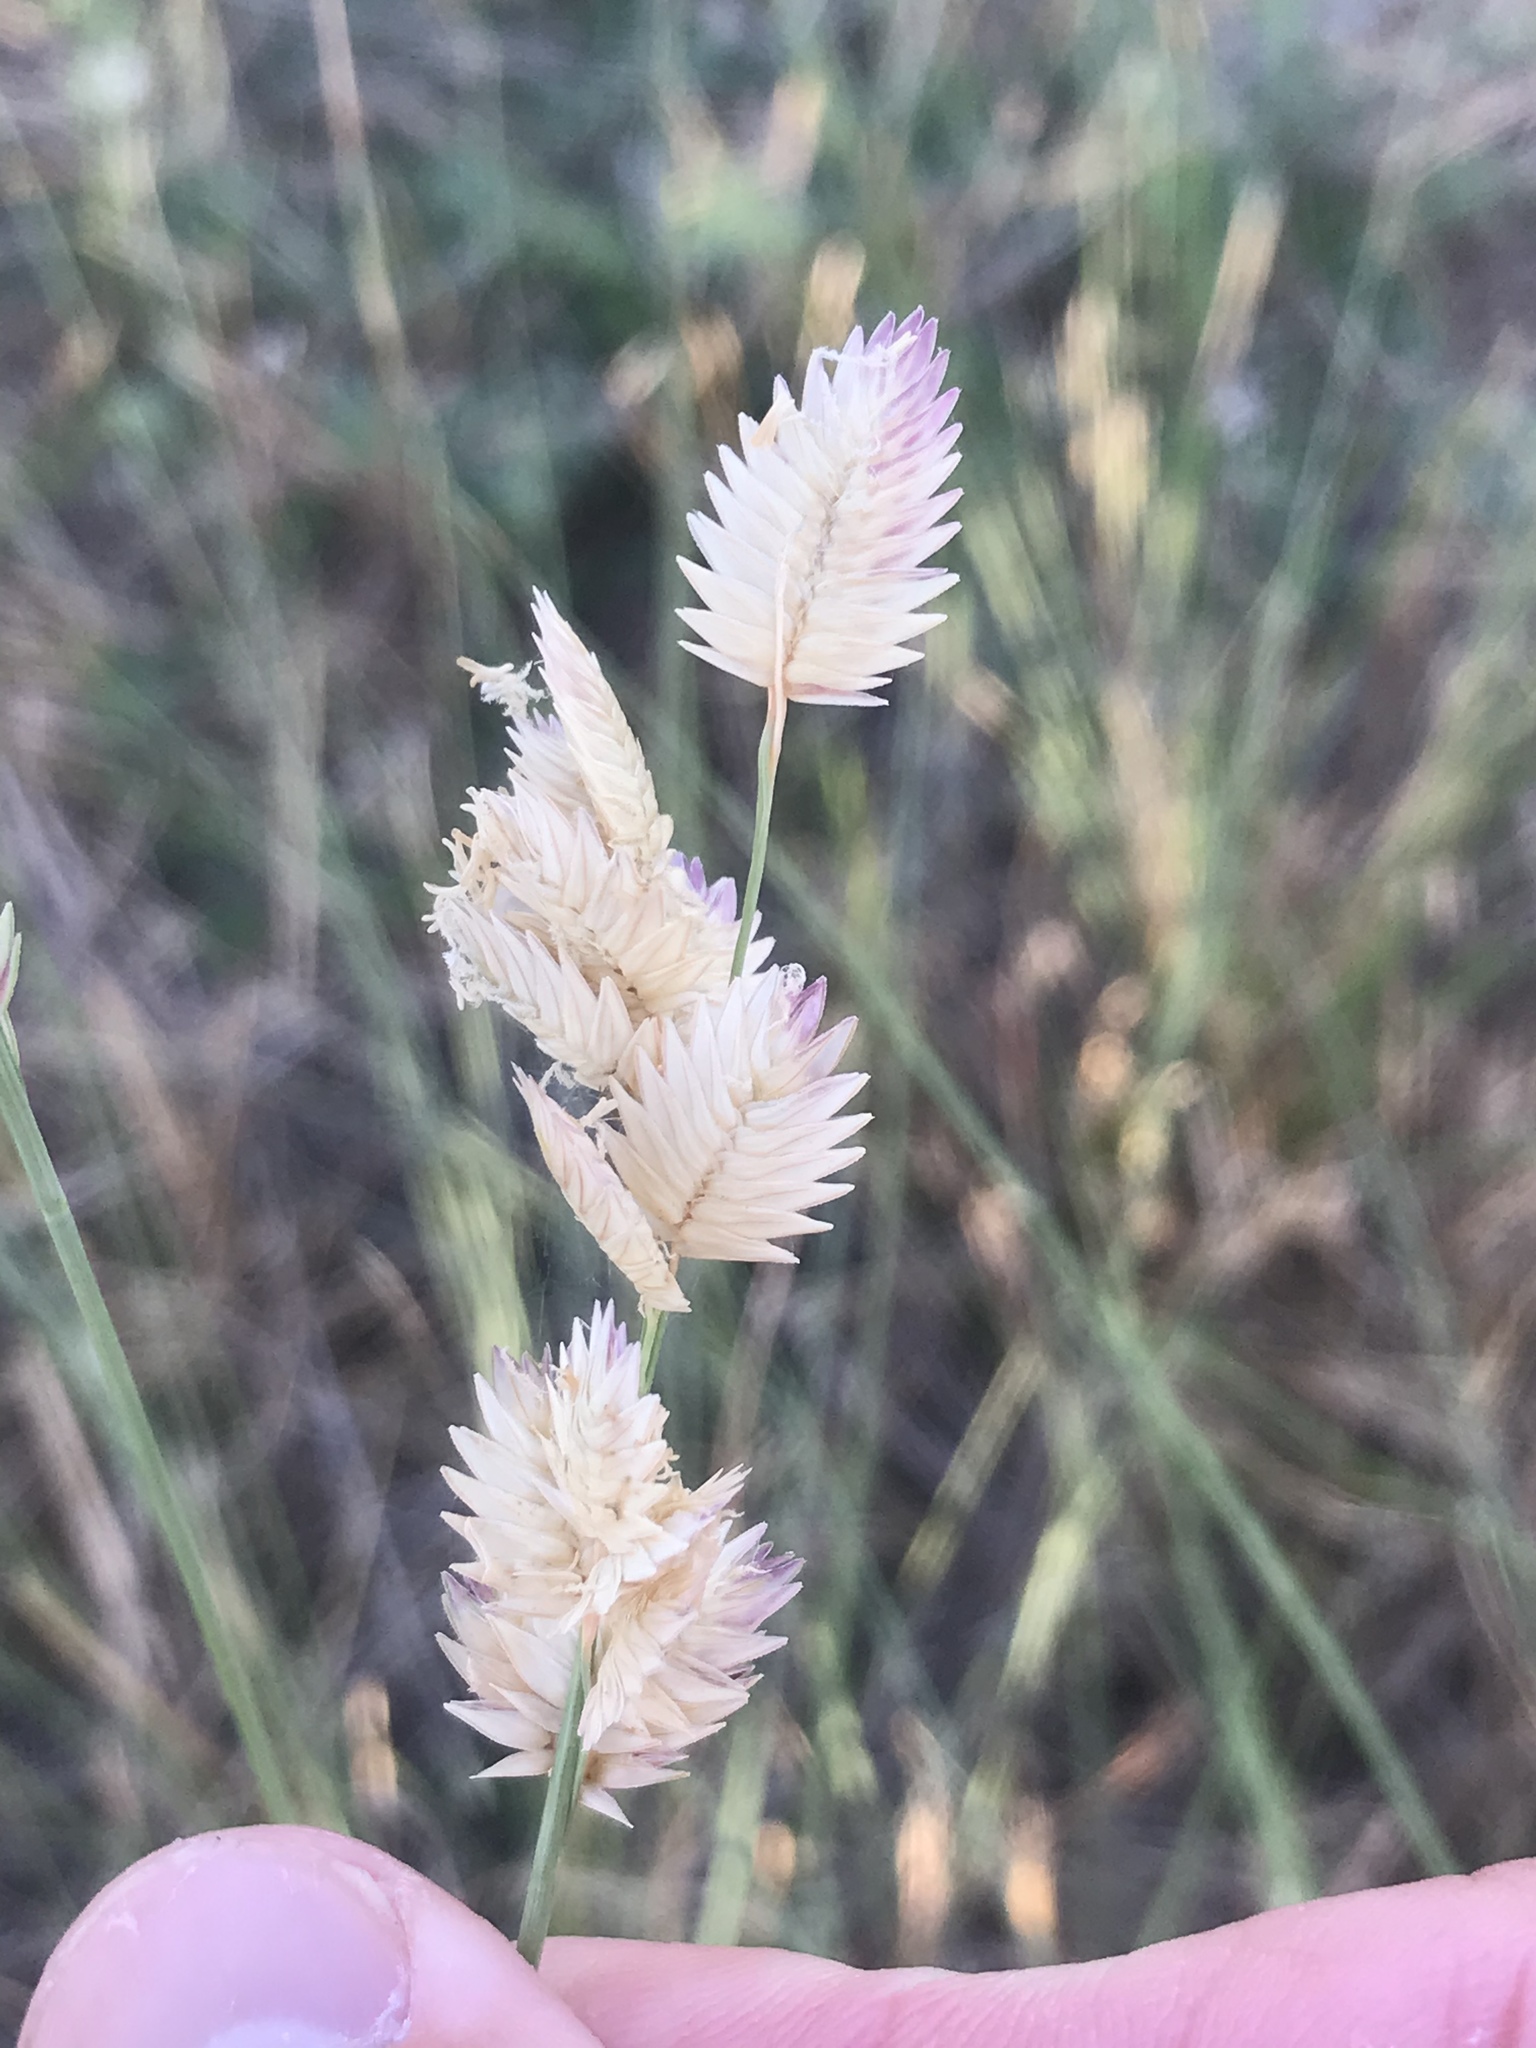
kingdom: Plantae
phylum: Tracheophyta
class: Liliopsida
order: Poales
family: Poaceae
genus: Eragrostis
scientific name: Eragrostis superba
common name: Wilman lovegrass
